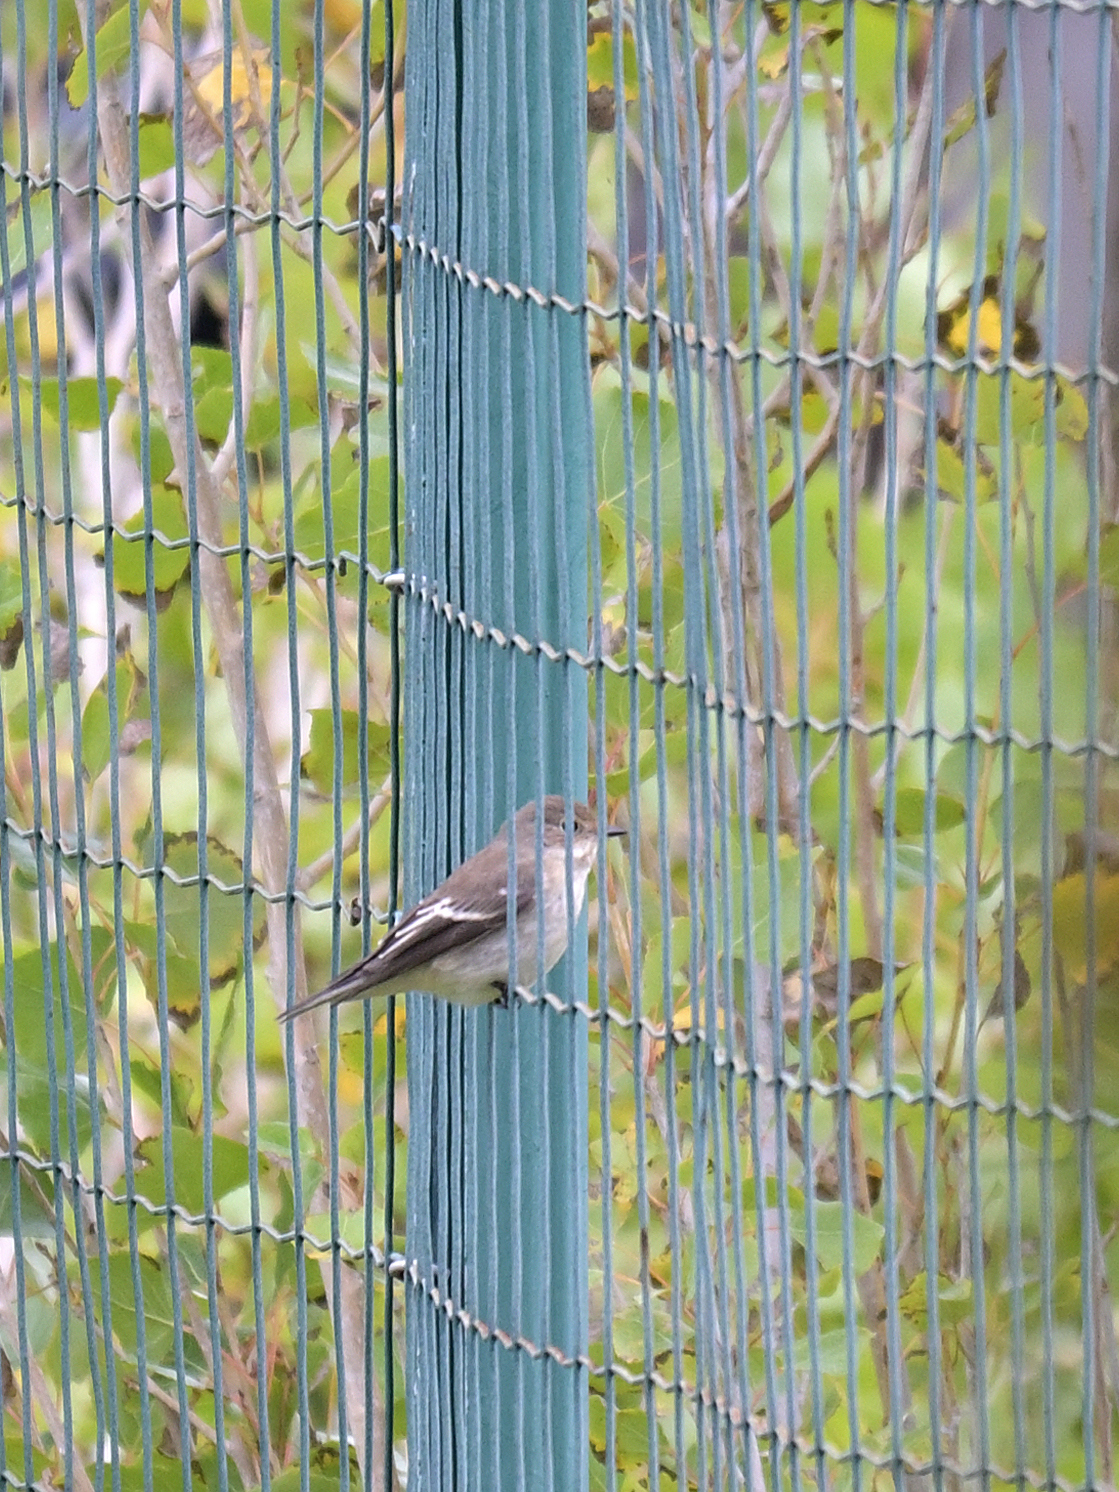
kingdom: Animalia
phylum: Chordata
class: Aves
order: Passeriformes
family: Muscicapidae
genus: Ficedula
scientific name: Ficedula hypoleuca
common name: European pied flycatcher
